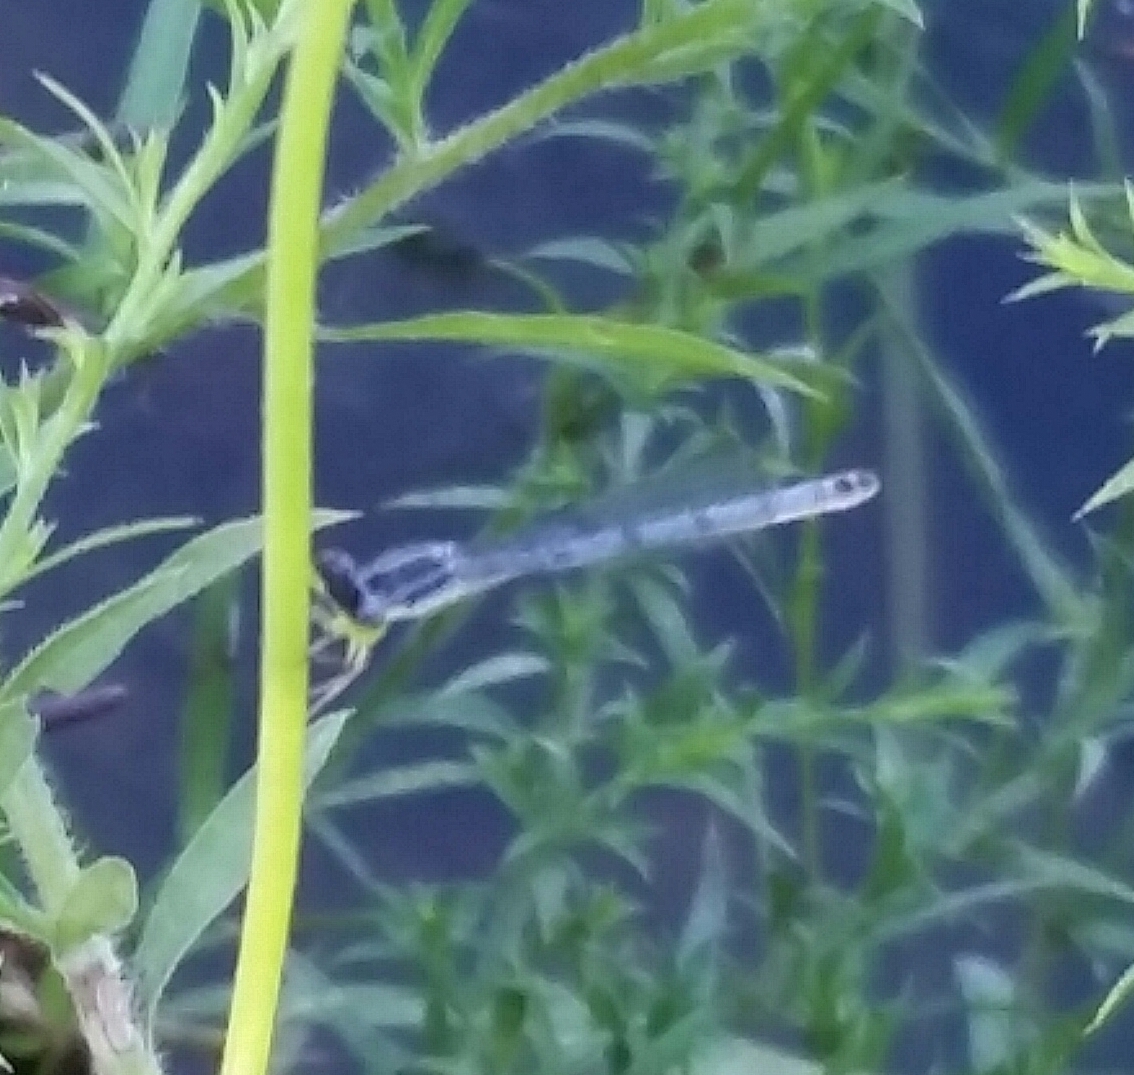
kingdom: Animalia
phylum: Arthropoda
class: Insecta
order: Odonata
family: Coenagrionidae
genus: Ischnura
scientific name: Ischnura verticalis
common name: Eastern forktail
